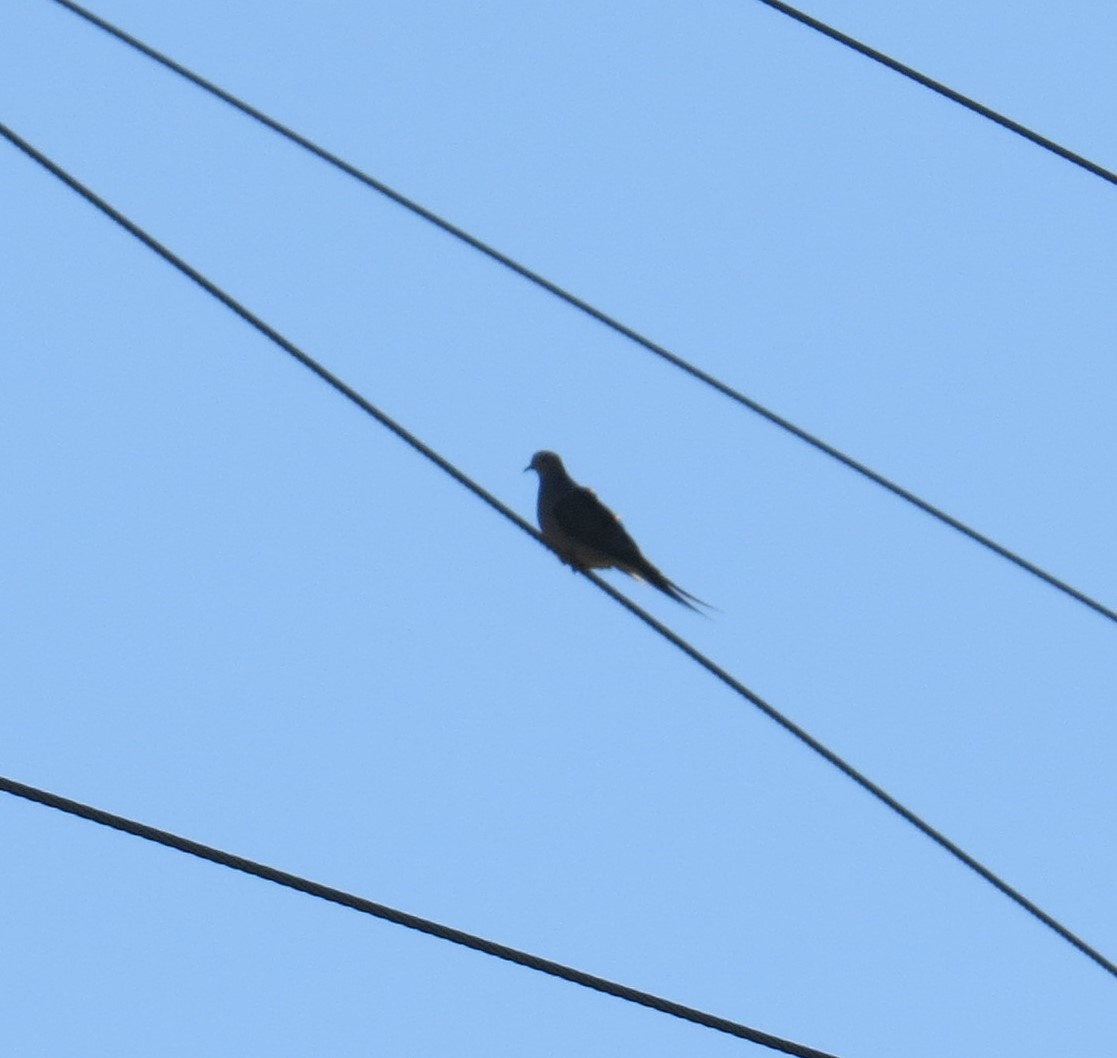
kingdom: Animalia
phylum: Chordata
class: Aves
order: Columbiformes
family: Columbidae
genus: Zenaida
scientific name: Zenaida macroura
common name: Mourning dove
